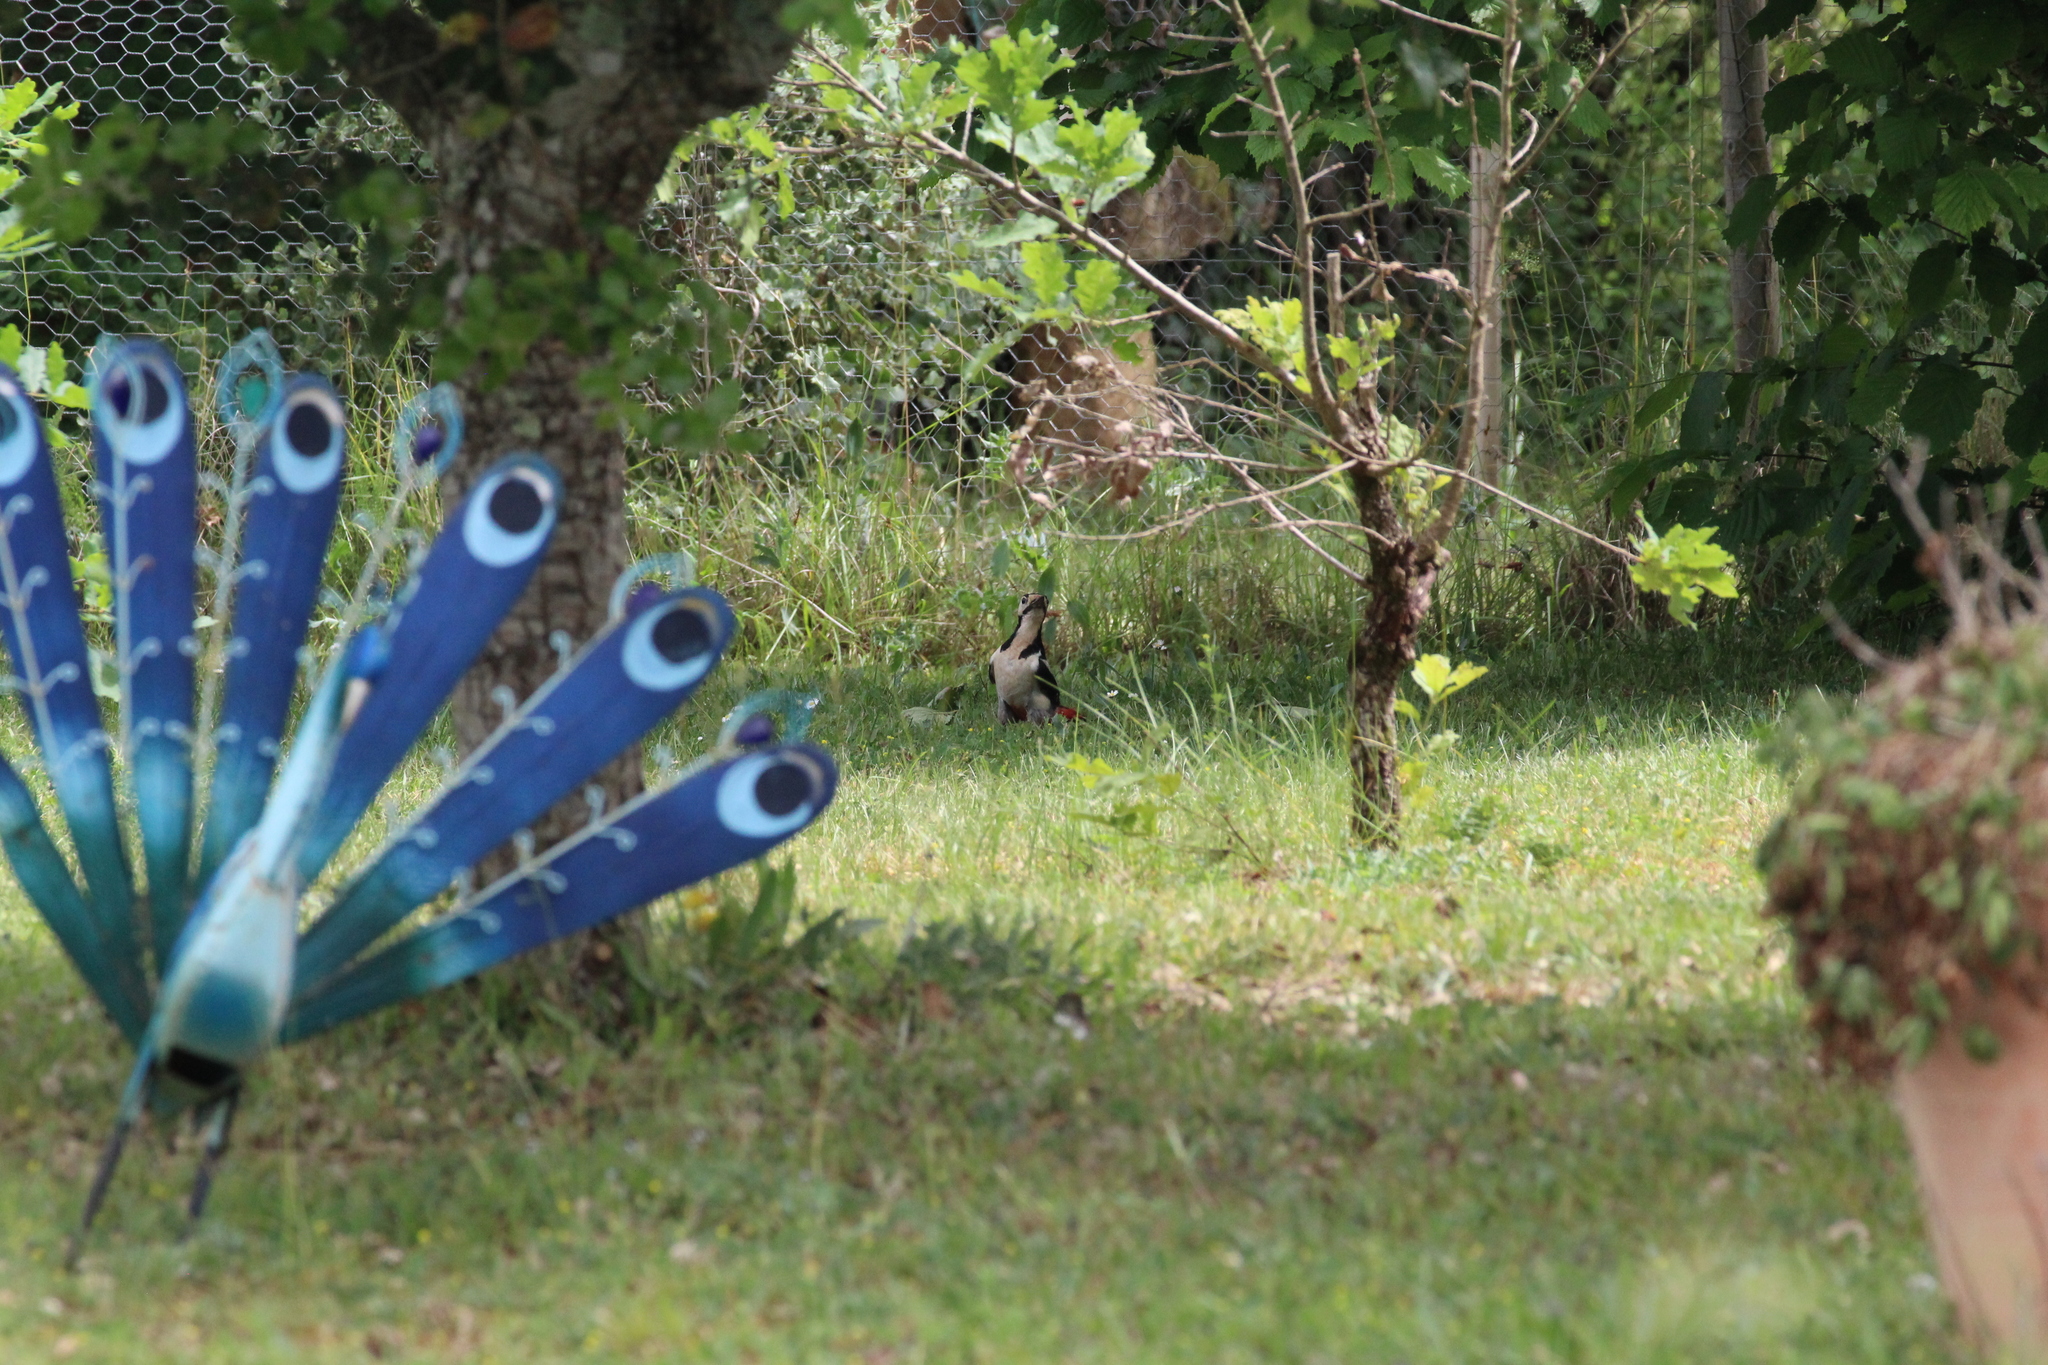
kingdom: Animalia
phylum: Chordata
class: Aves
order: Piciformes
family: Picidae
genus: Dendrocopos
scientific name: Dendrocopos major
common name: Great spotted woodpecker
